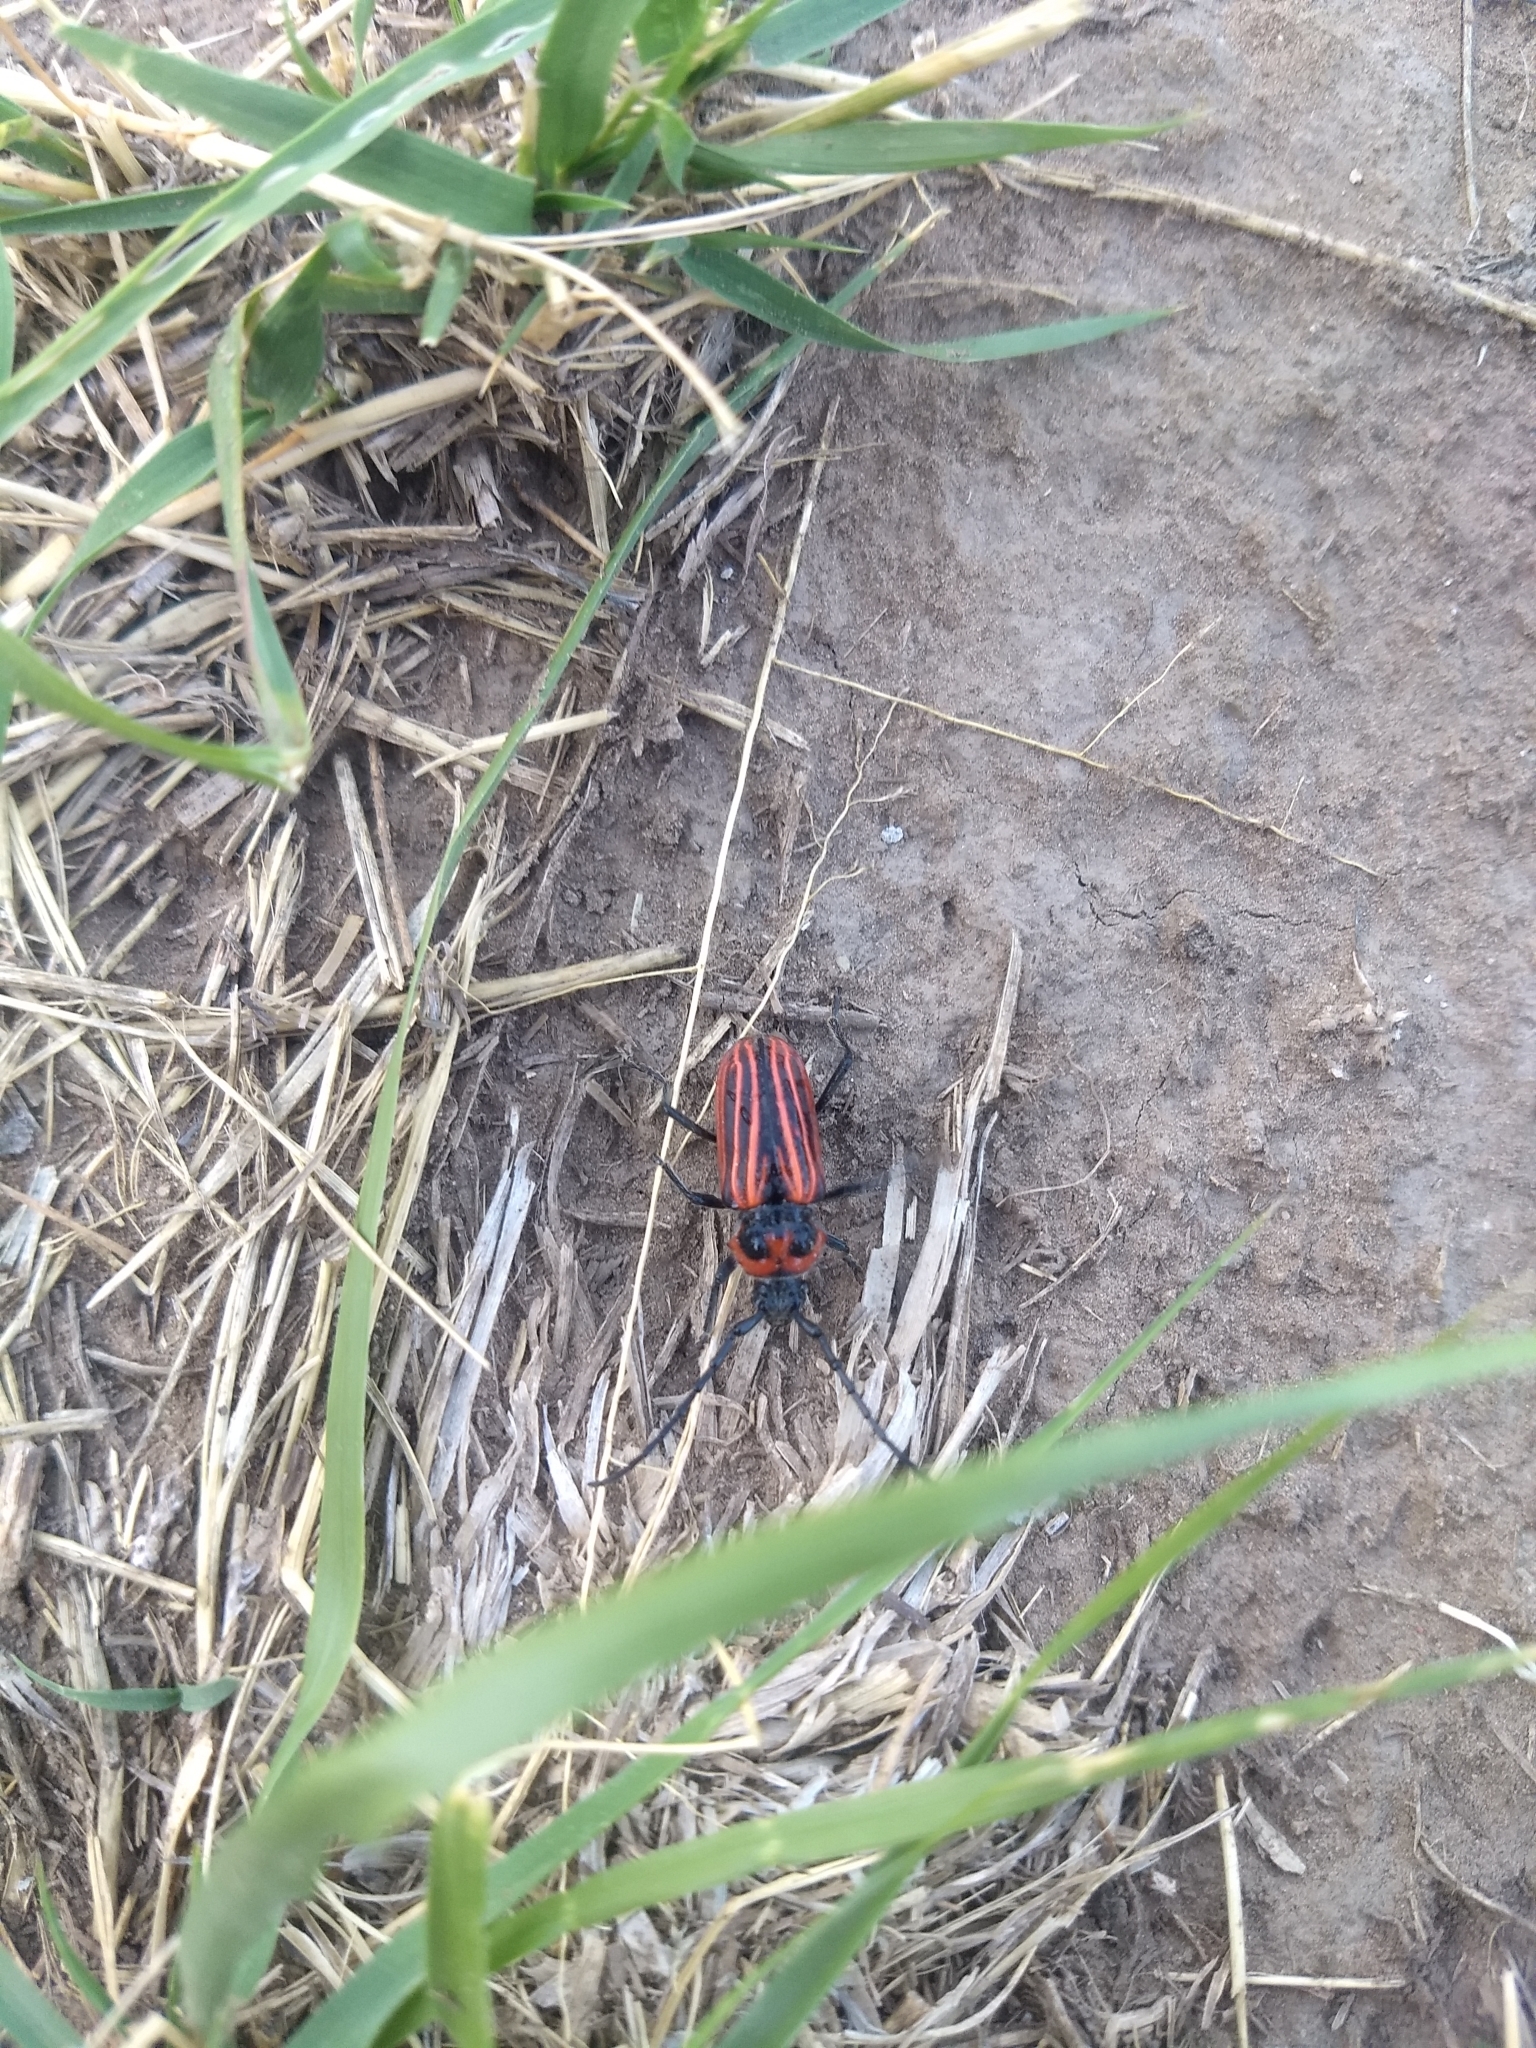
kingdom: Animalia
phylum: Arthropoda
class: Insecta
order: Coleoptera
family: Cerambycidae
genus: Eriocharis
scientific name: Eriocharis richardii
